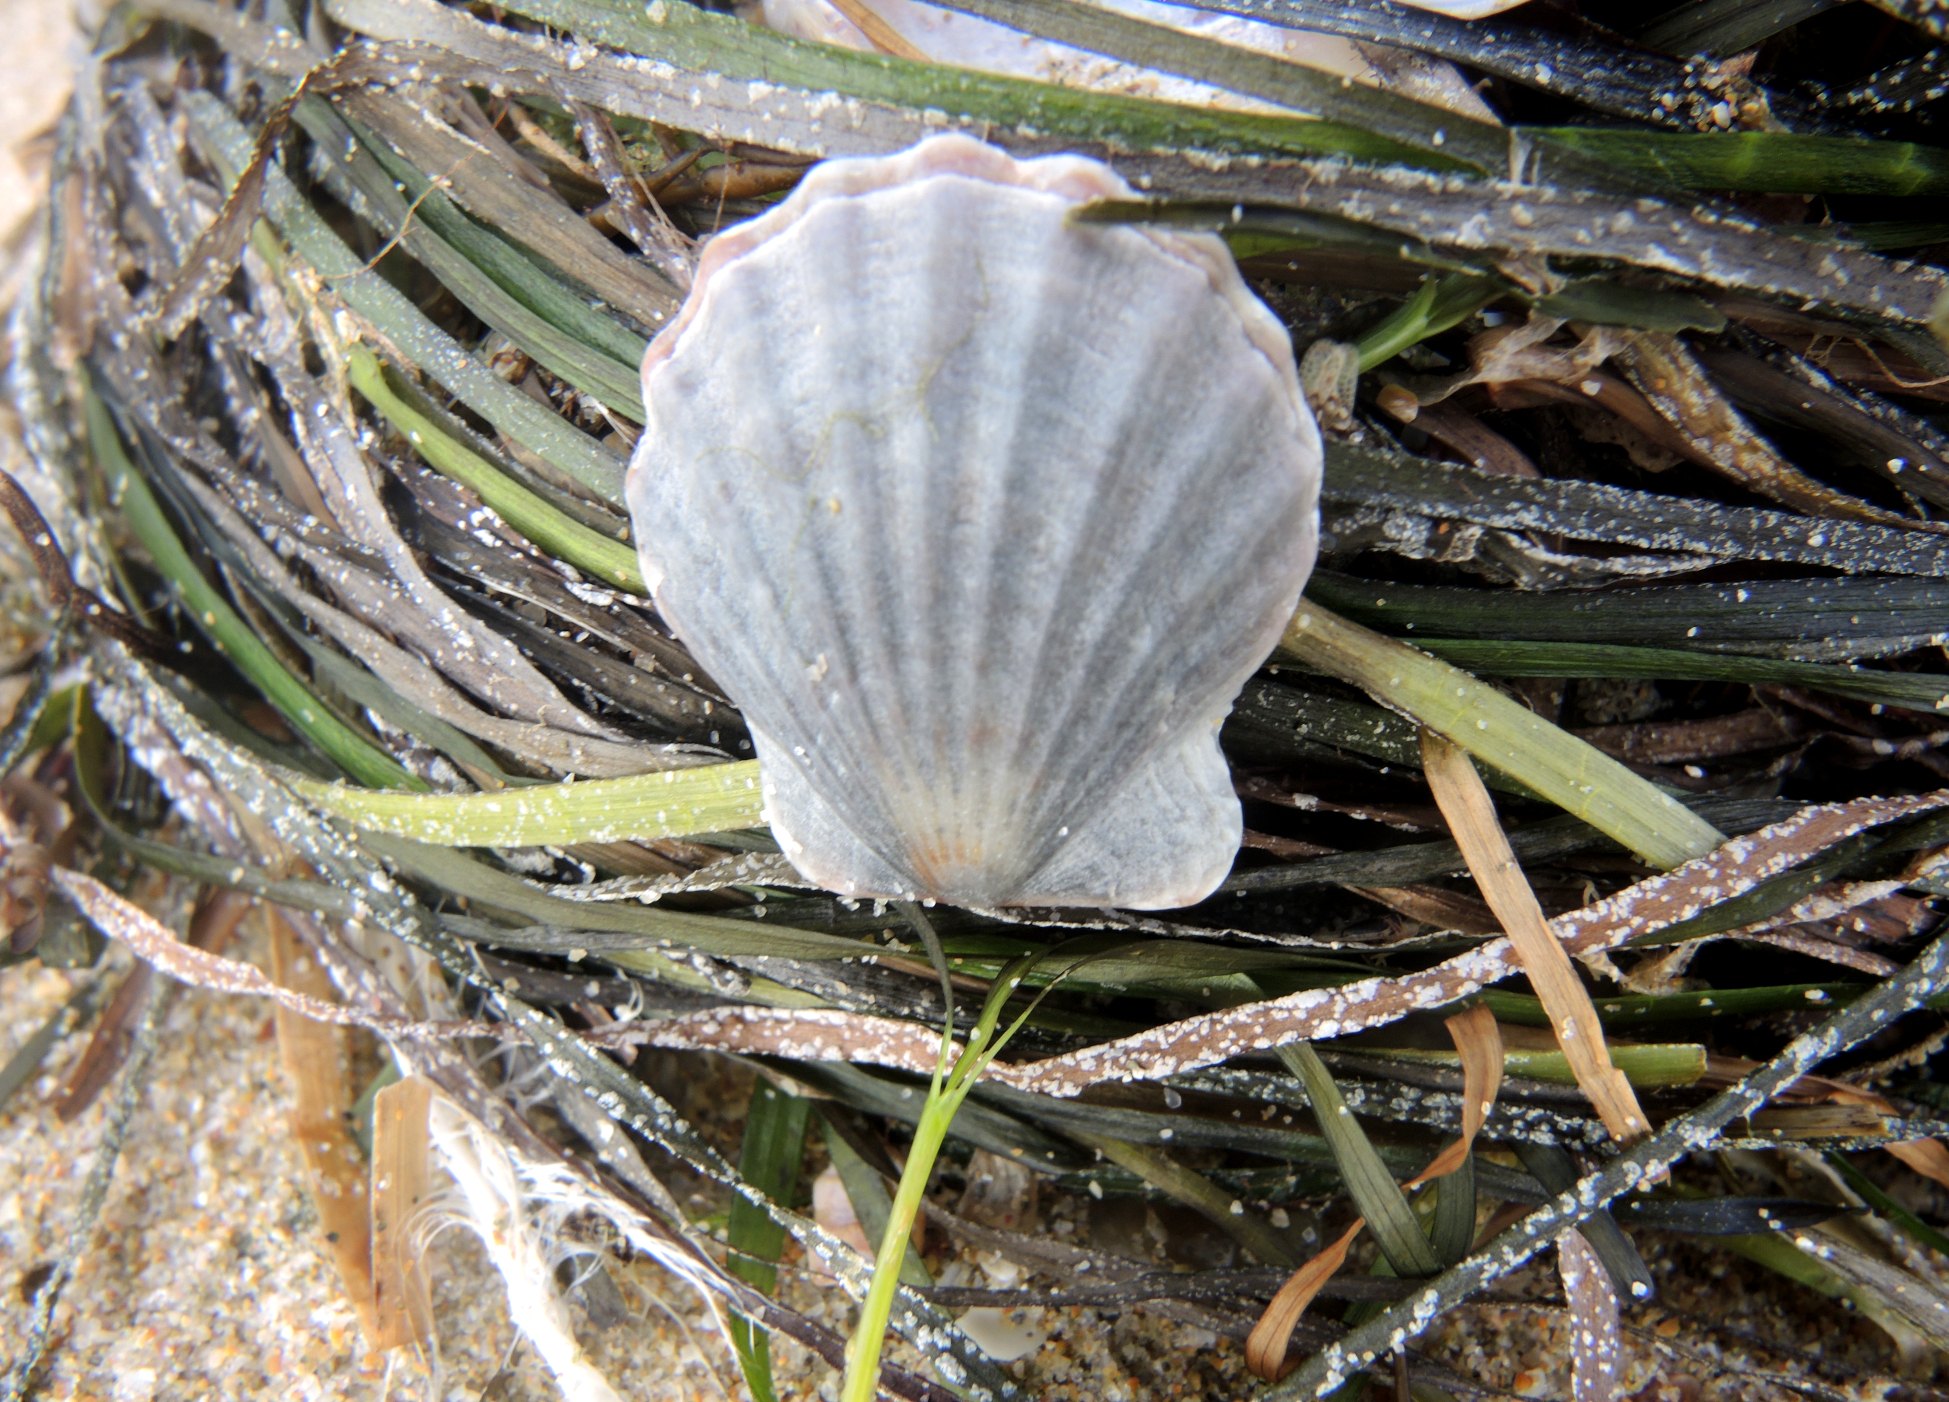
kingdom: Animalia
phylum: Mollusca
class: Bivalvia
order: Pectinida
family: Pectinidae
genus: Flexopecten
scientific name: Flexopecten glaber
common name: Smooth scallop
